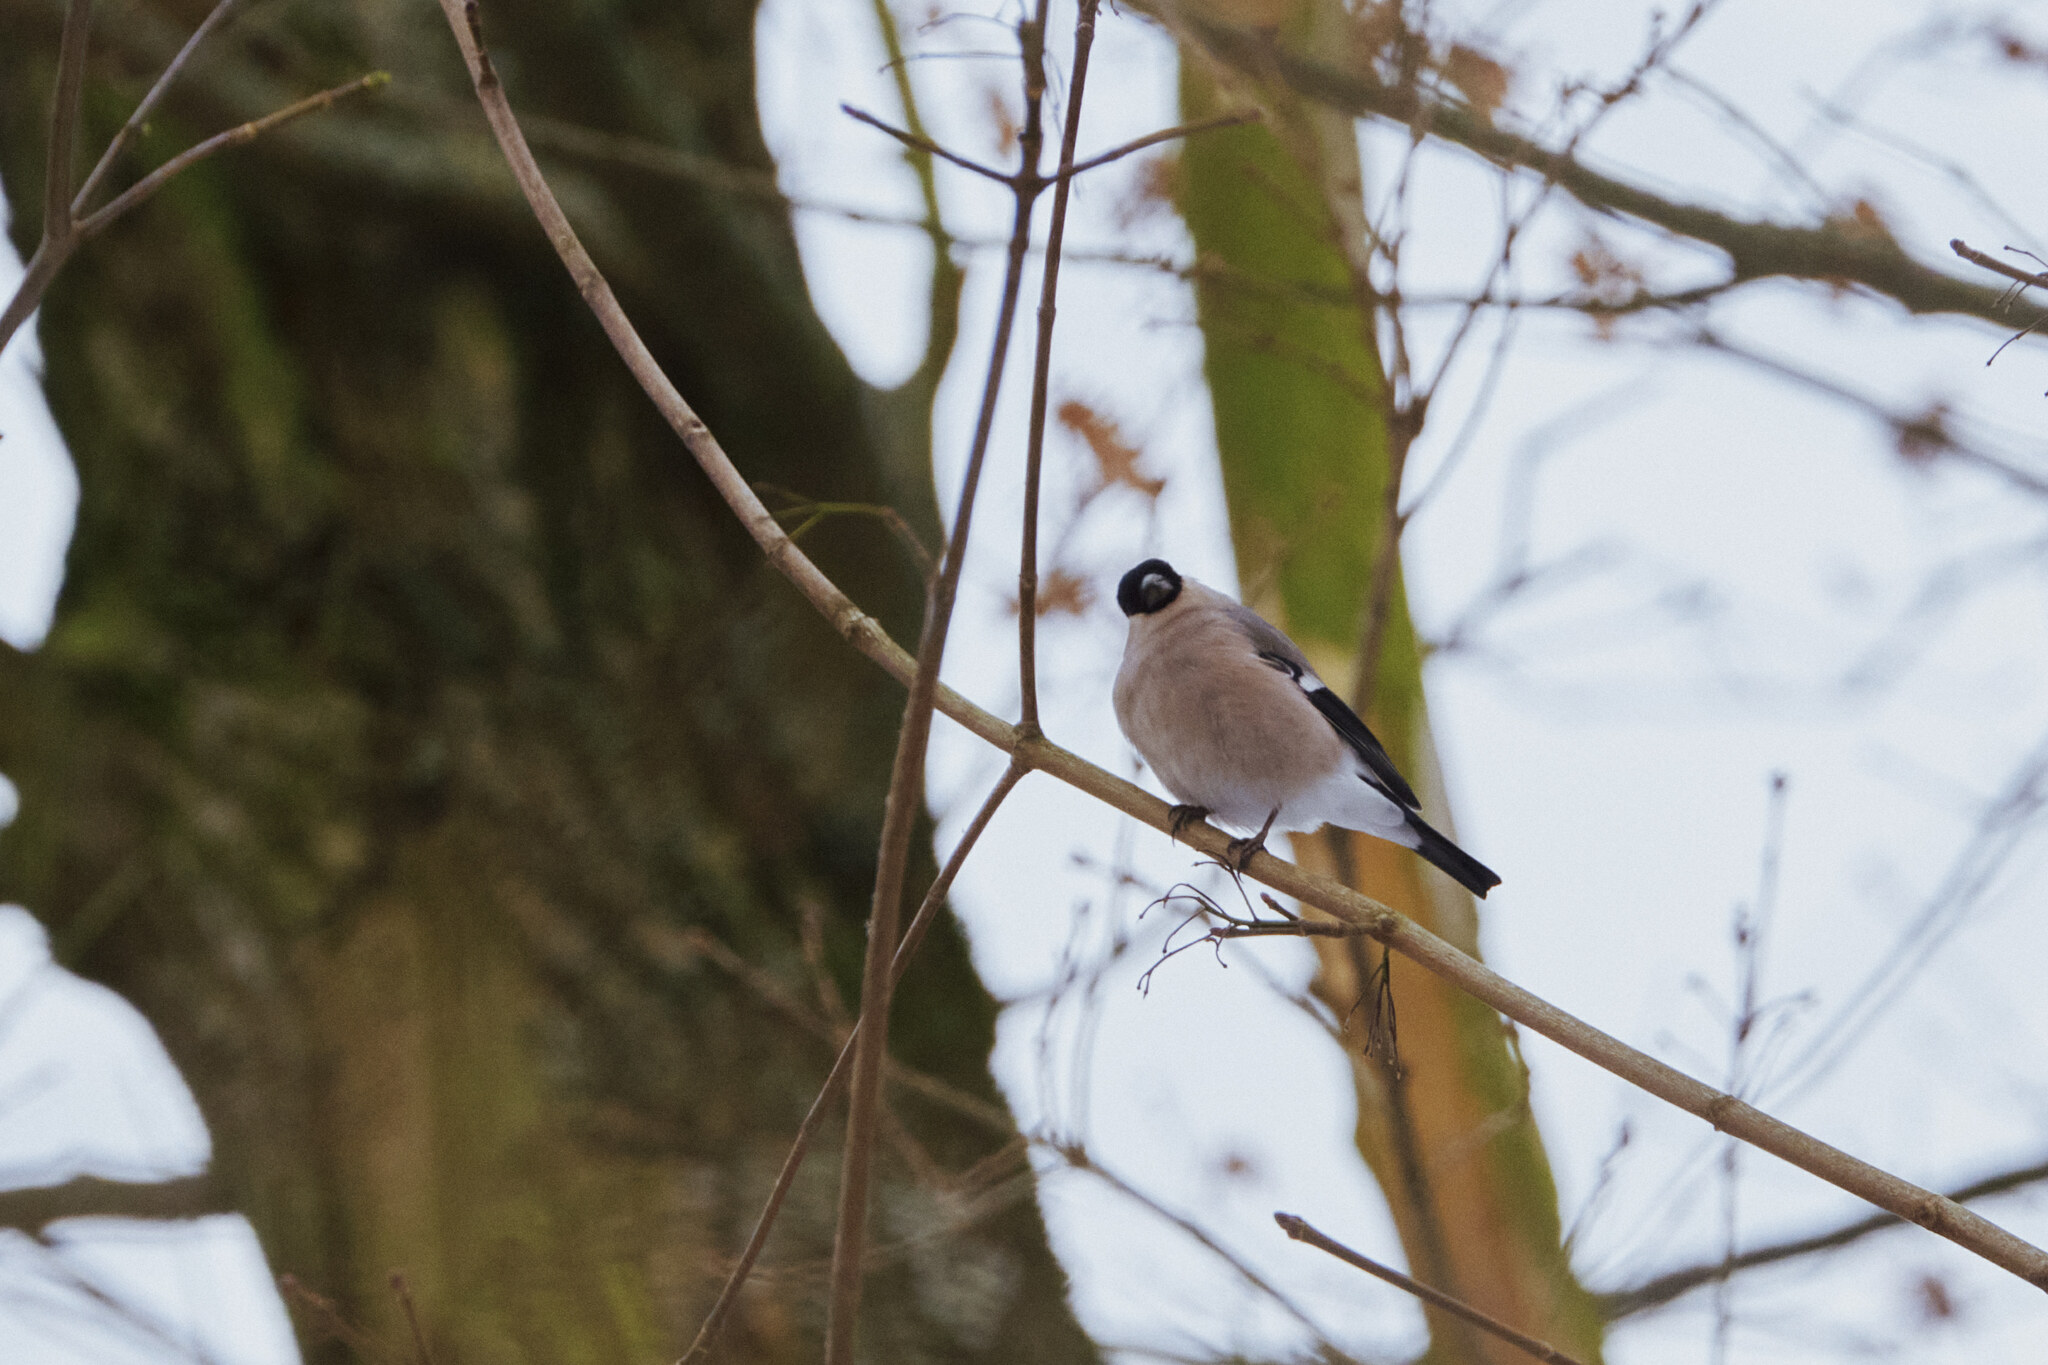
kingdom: Animalia
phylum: Chordata
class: Aves
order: Passeriformes
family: Fringillidae
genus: Pyrrhula
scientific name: Pyrrhula pyrrhula
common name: Eurasian bullfinch
